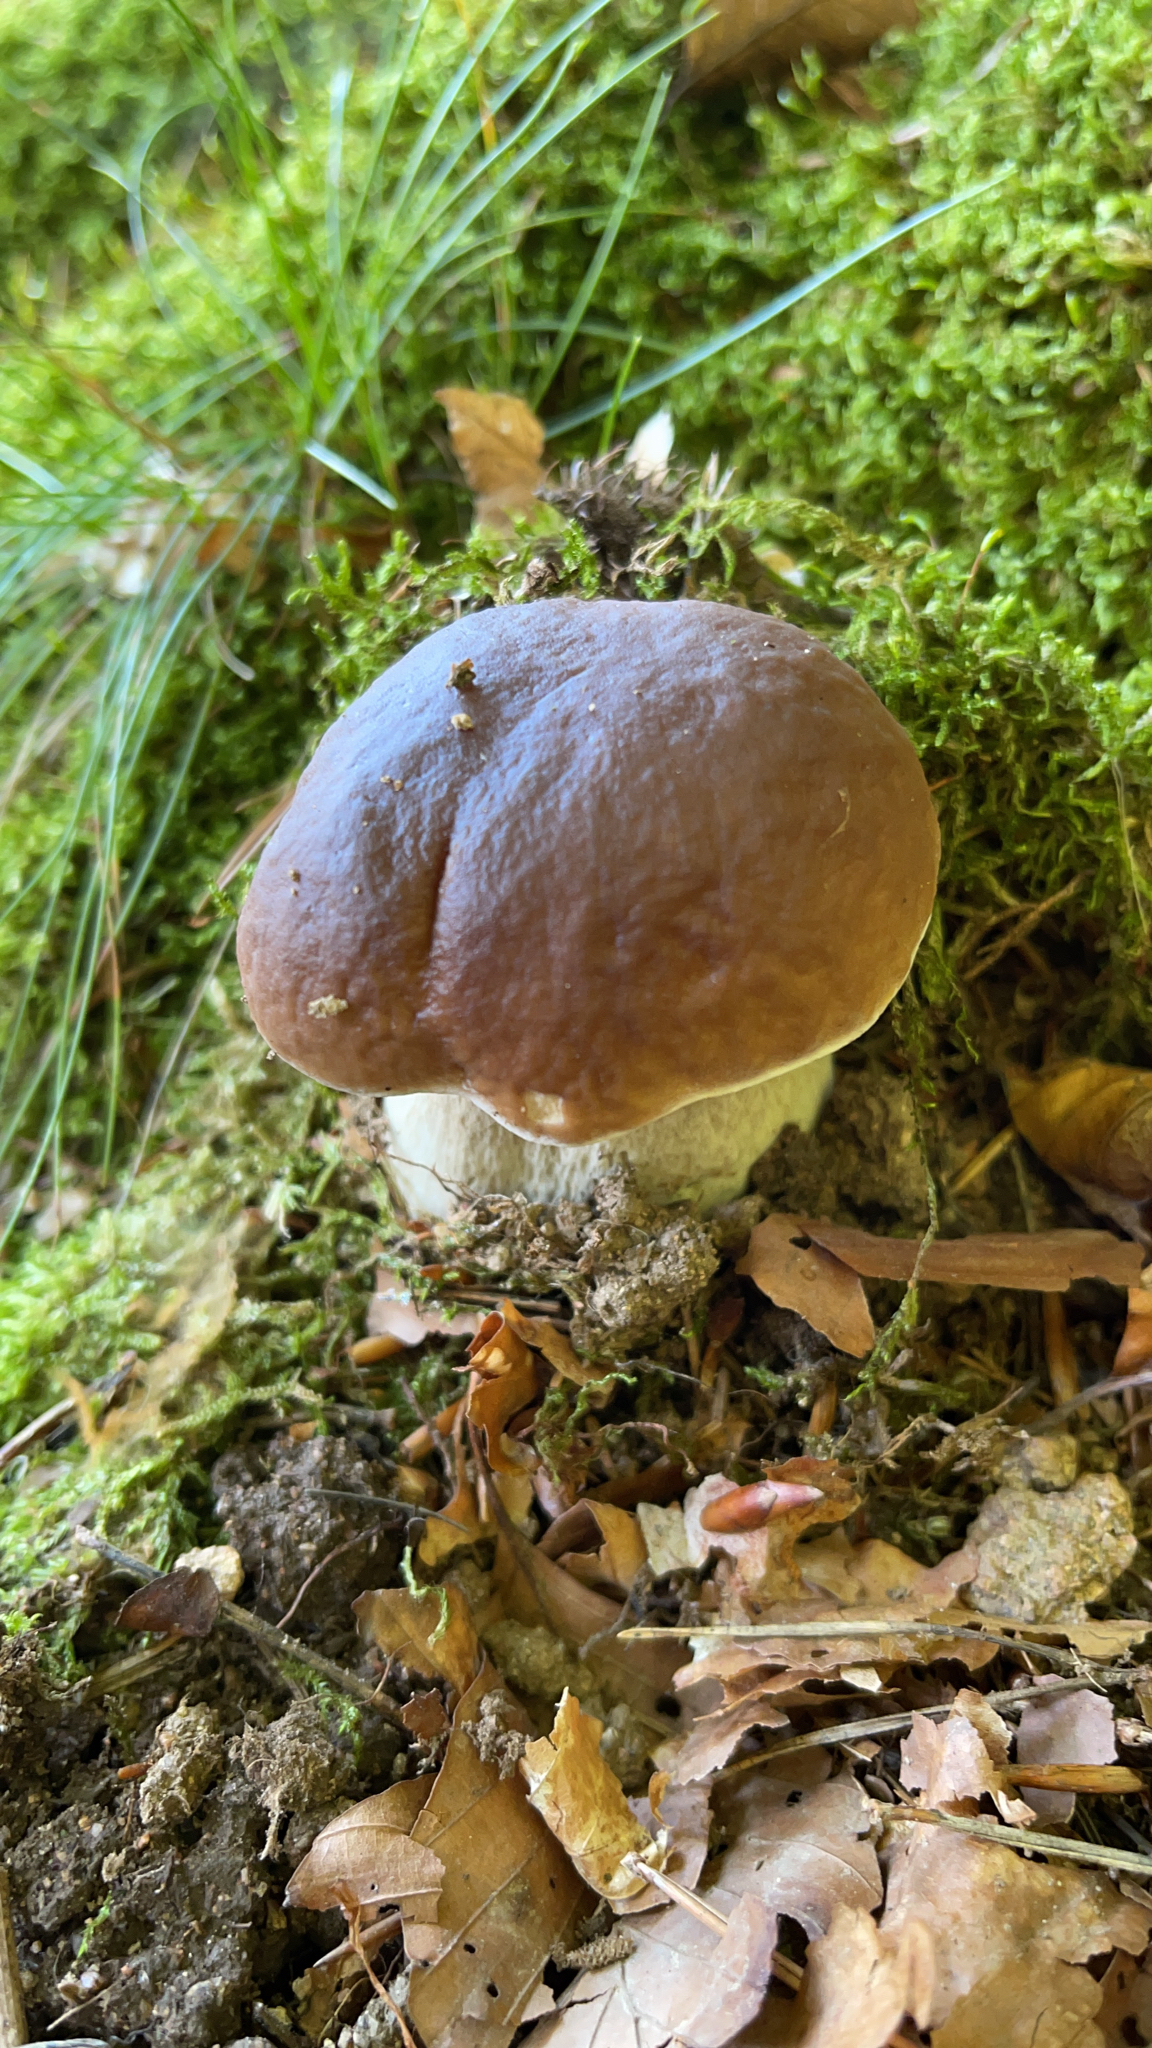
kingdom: Fungi
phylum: Basidiomycota
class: Agaricomycetes
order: Boletales
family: Boletaceae
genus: Boletus
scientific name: Boletus edulis
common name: Cep
